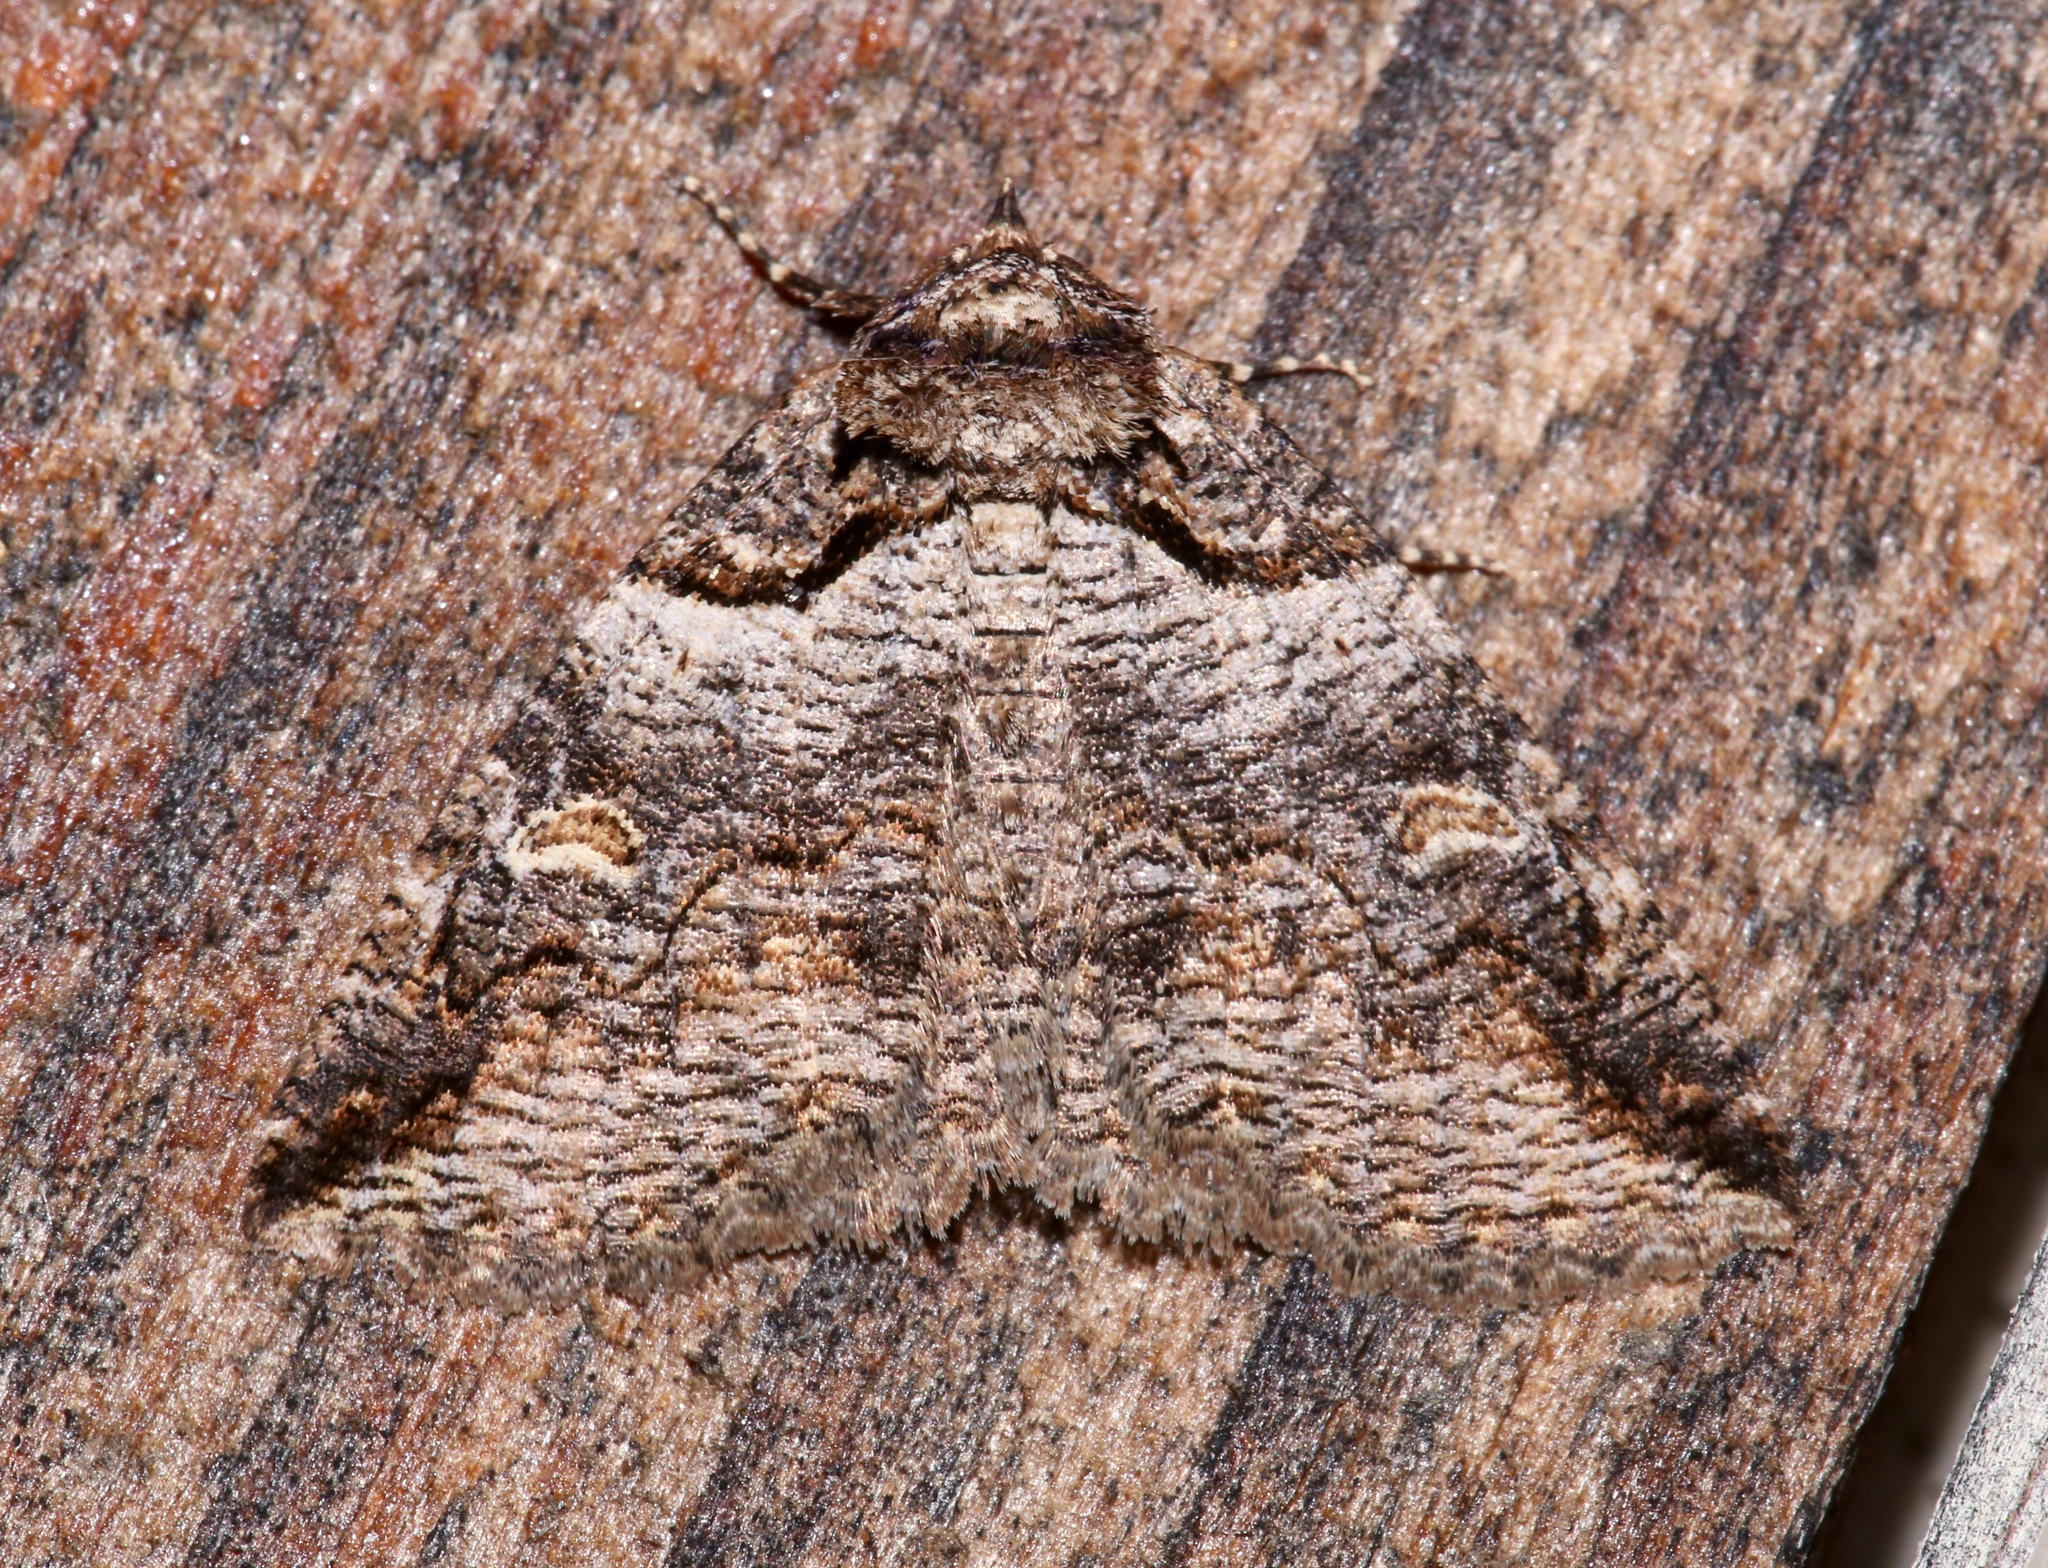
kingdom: Animalia
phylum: Arthropoda
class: Insecta
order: Lepidoptera
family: Erebidae
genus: Zale
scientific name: Zale intenta
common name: Intent zale moth
